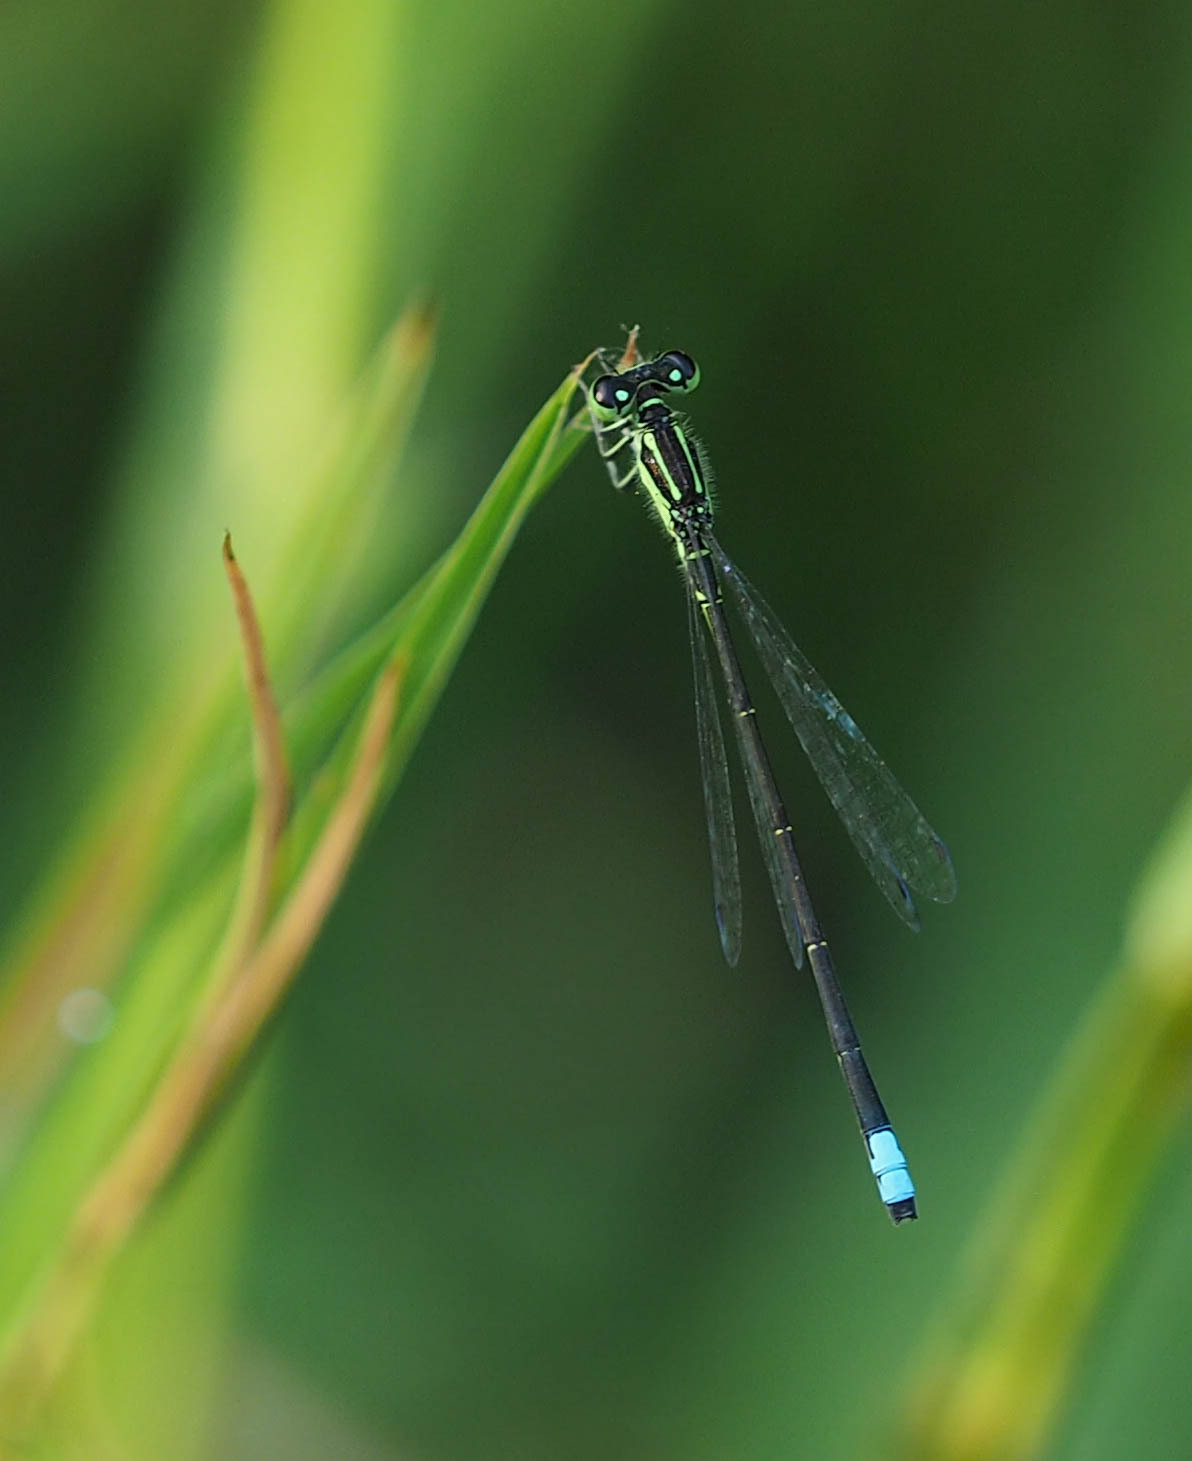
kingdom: Animalia
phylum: Arthropoda
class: Insecta
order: Odonata
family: Coenagrionidae
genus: Ischnura
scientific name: Ischnura verticalis
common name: Eastern forktail
